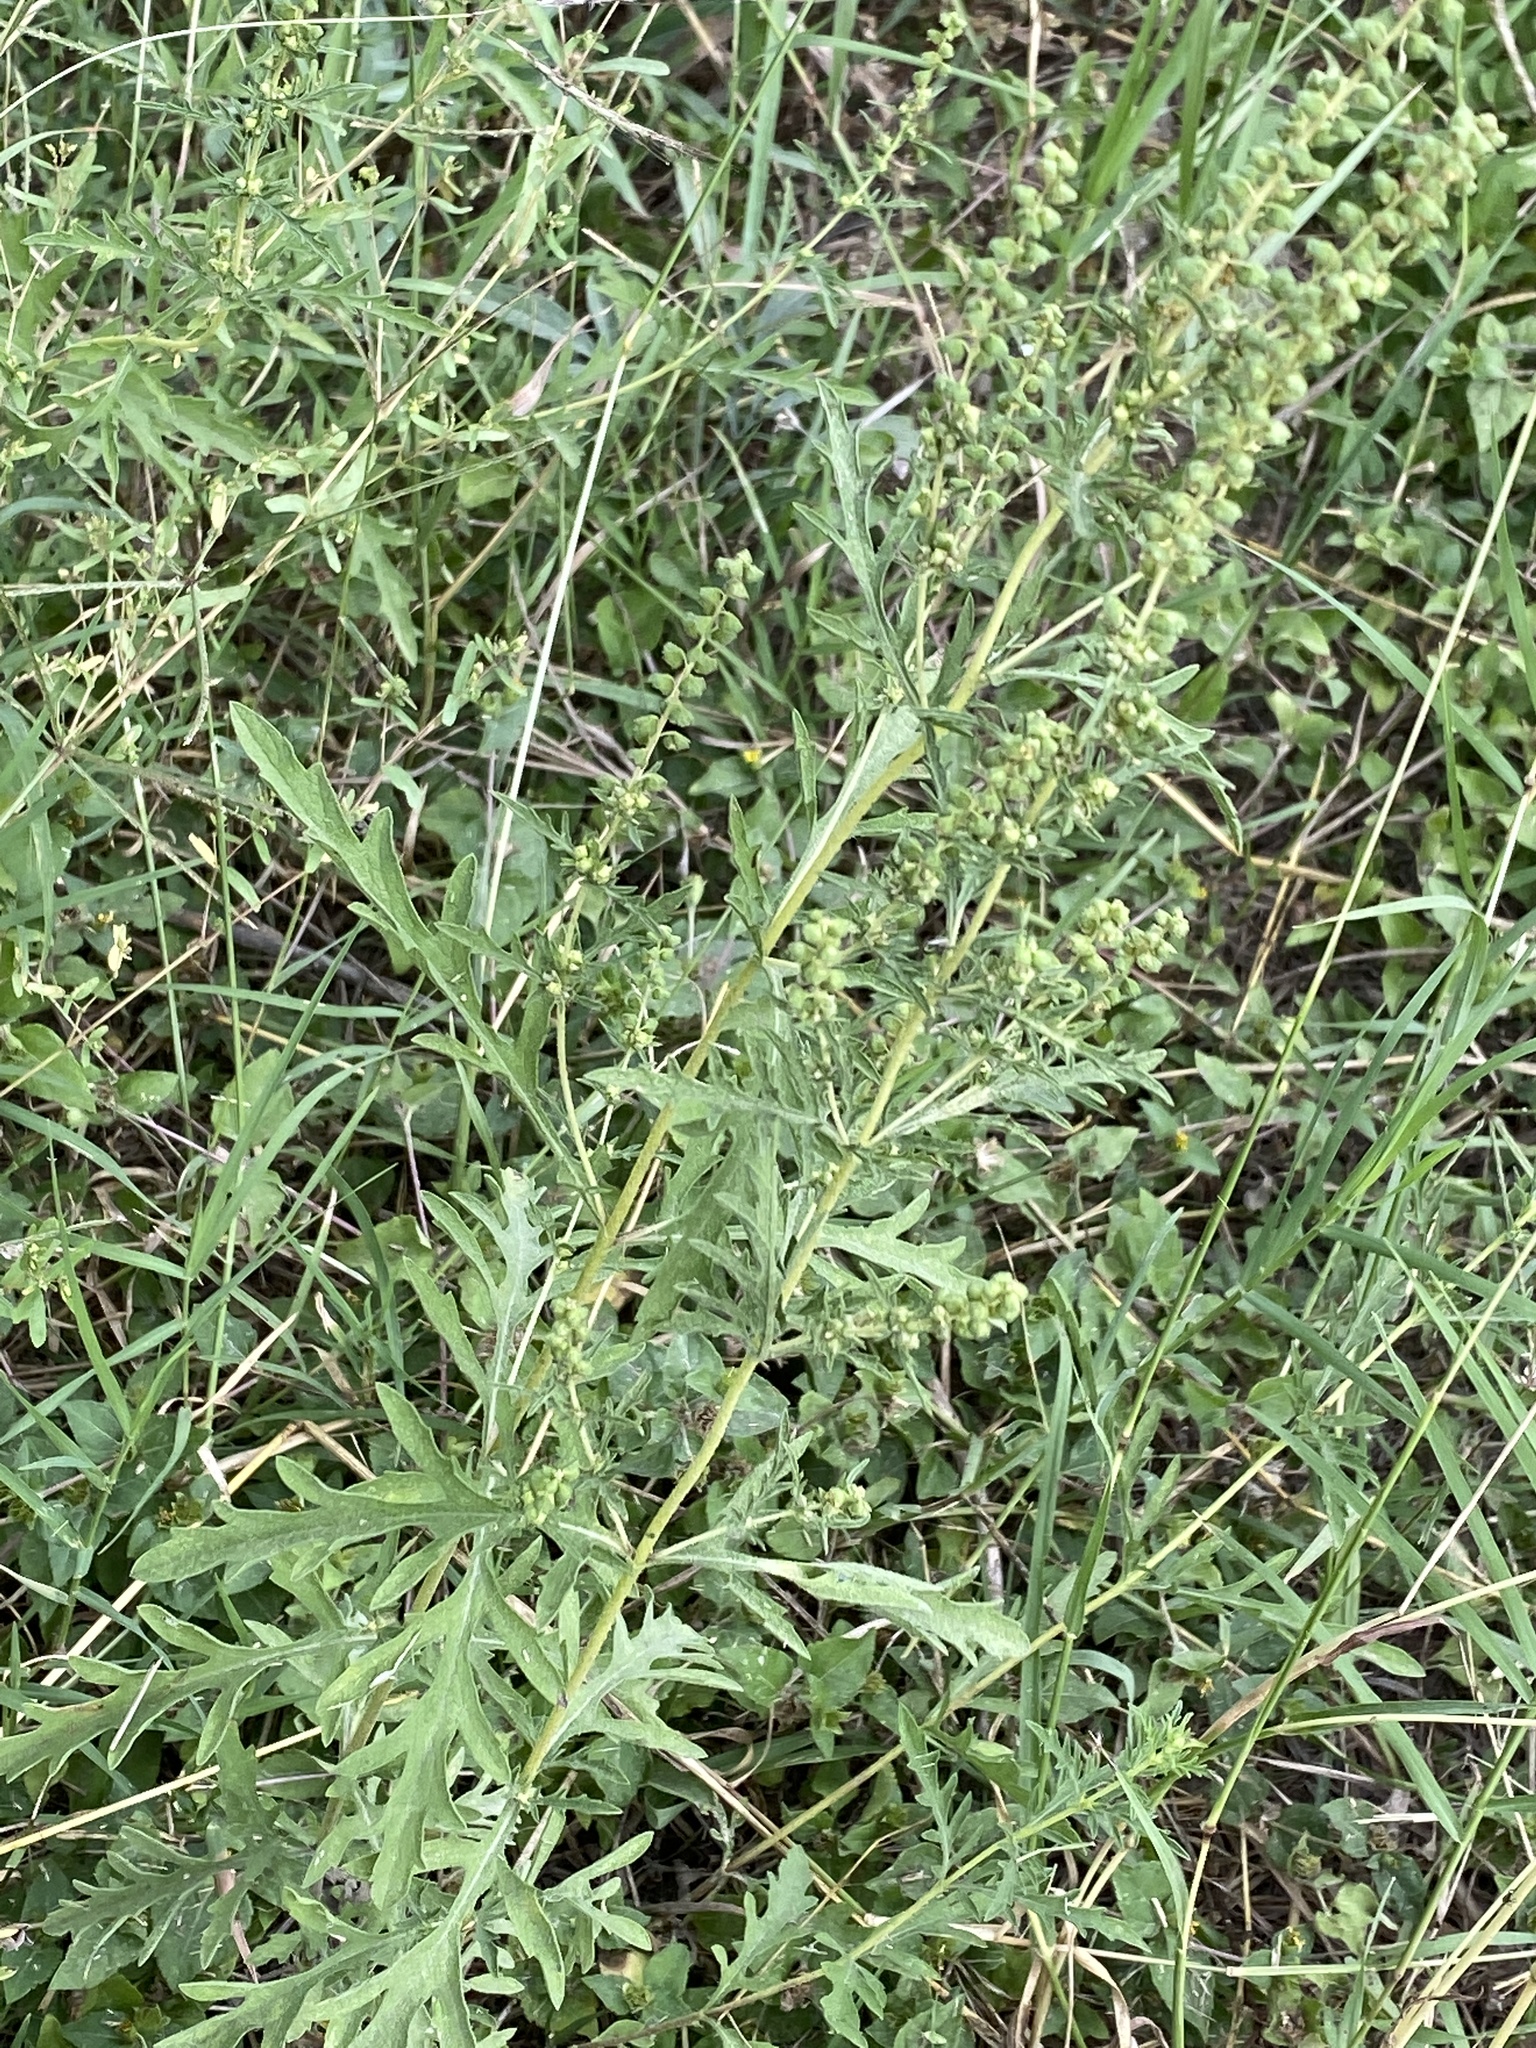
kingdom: Plantae
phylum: Tracheophyta
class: Magnoliopsida
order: Asterales
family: Asteraceae
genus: Ambrosia
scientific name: Ambrosia psilostachya
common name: Perennial ragweed
